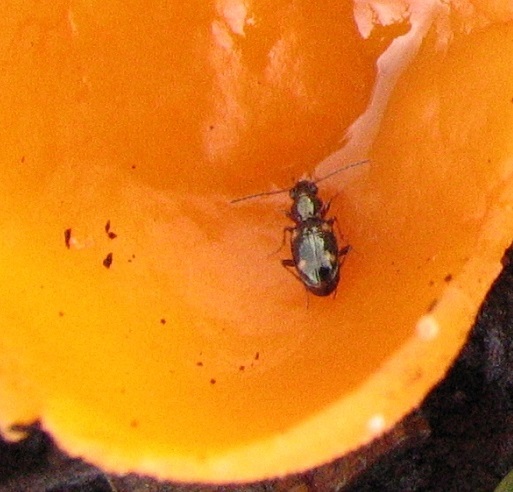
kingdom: Animalia
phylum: Arthropoda
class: Insecta
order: Coleoptera
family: Carabidae
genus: Bembidion
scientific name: Bembidion quadrimaculatum
